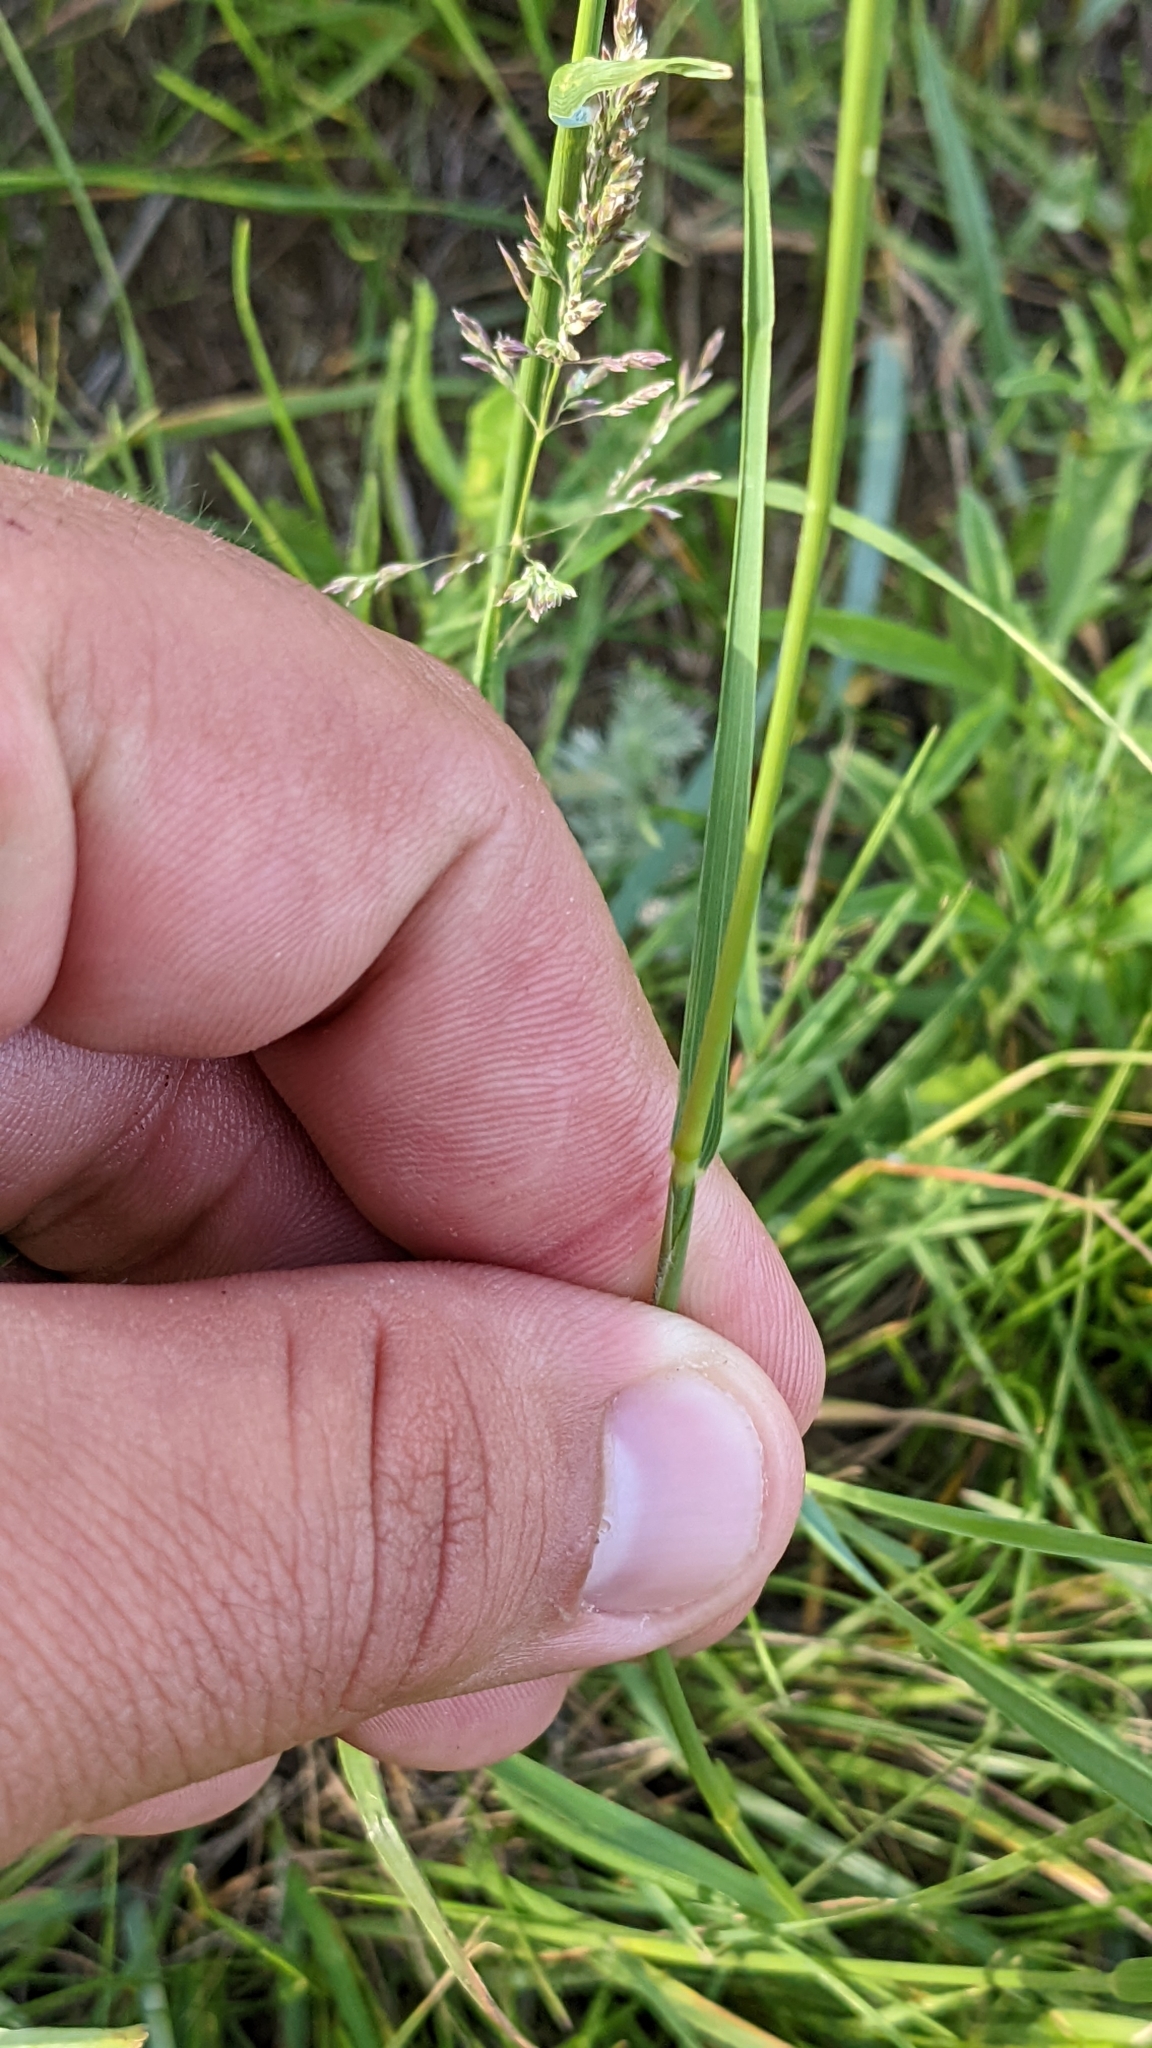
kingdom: Plantae
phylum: Tracheophyta
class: Liliopsida
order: Poales
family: Poaceae
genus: Nassella
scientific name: Nassella viridula
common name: Green needlegrass
